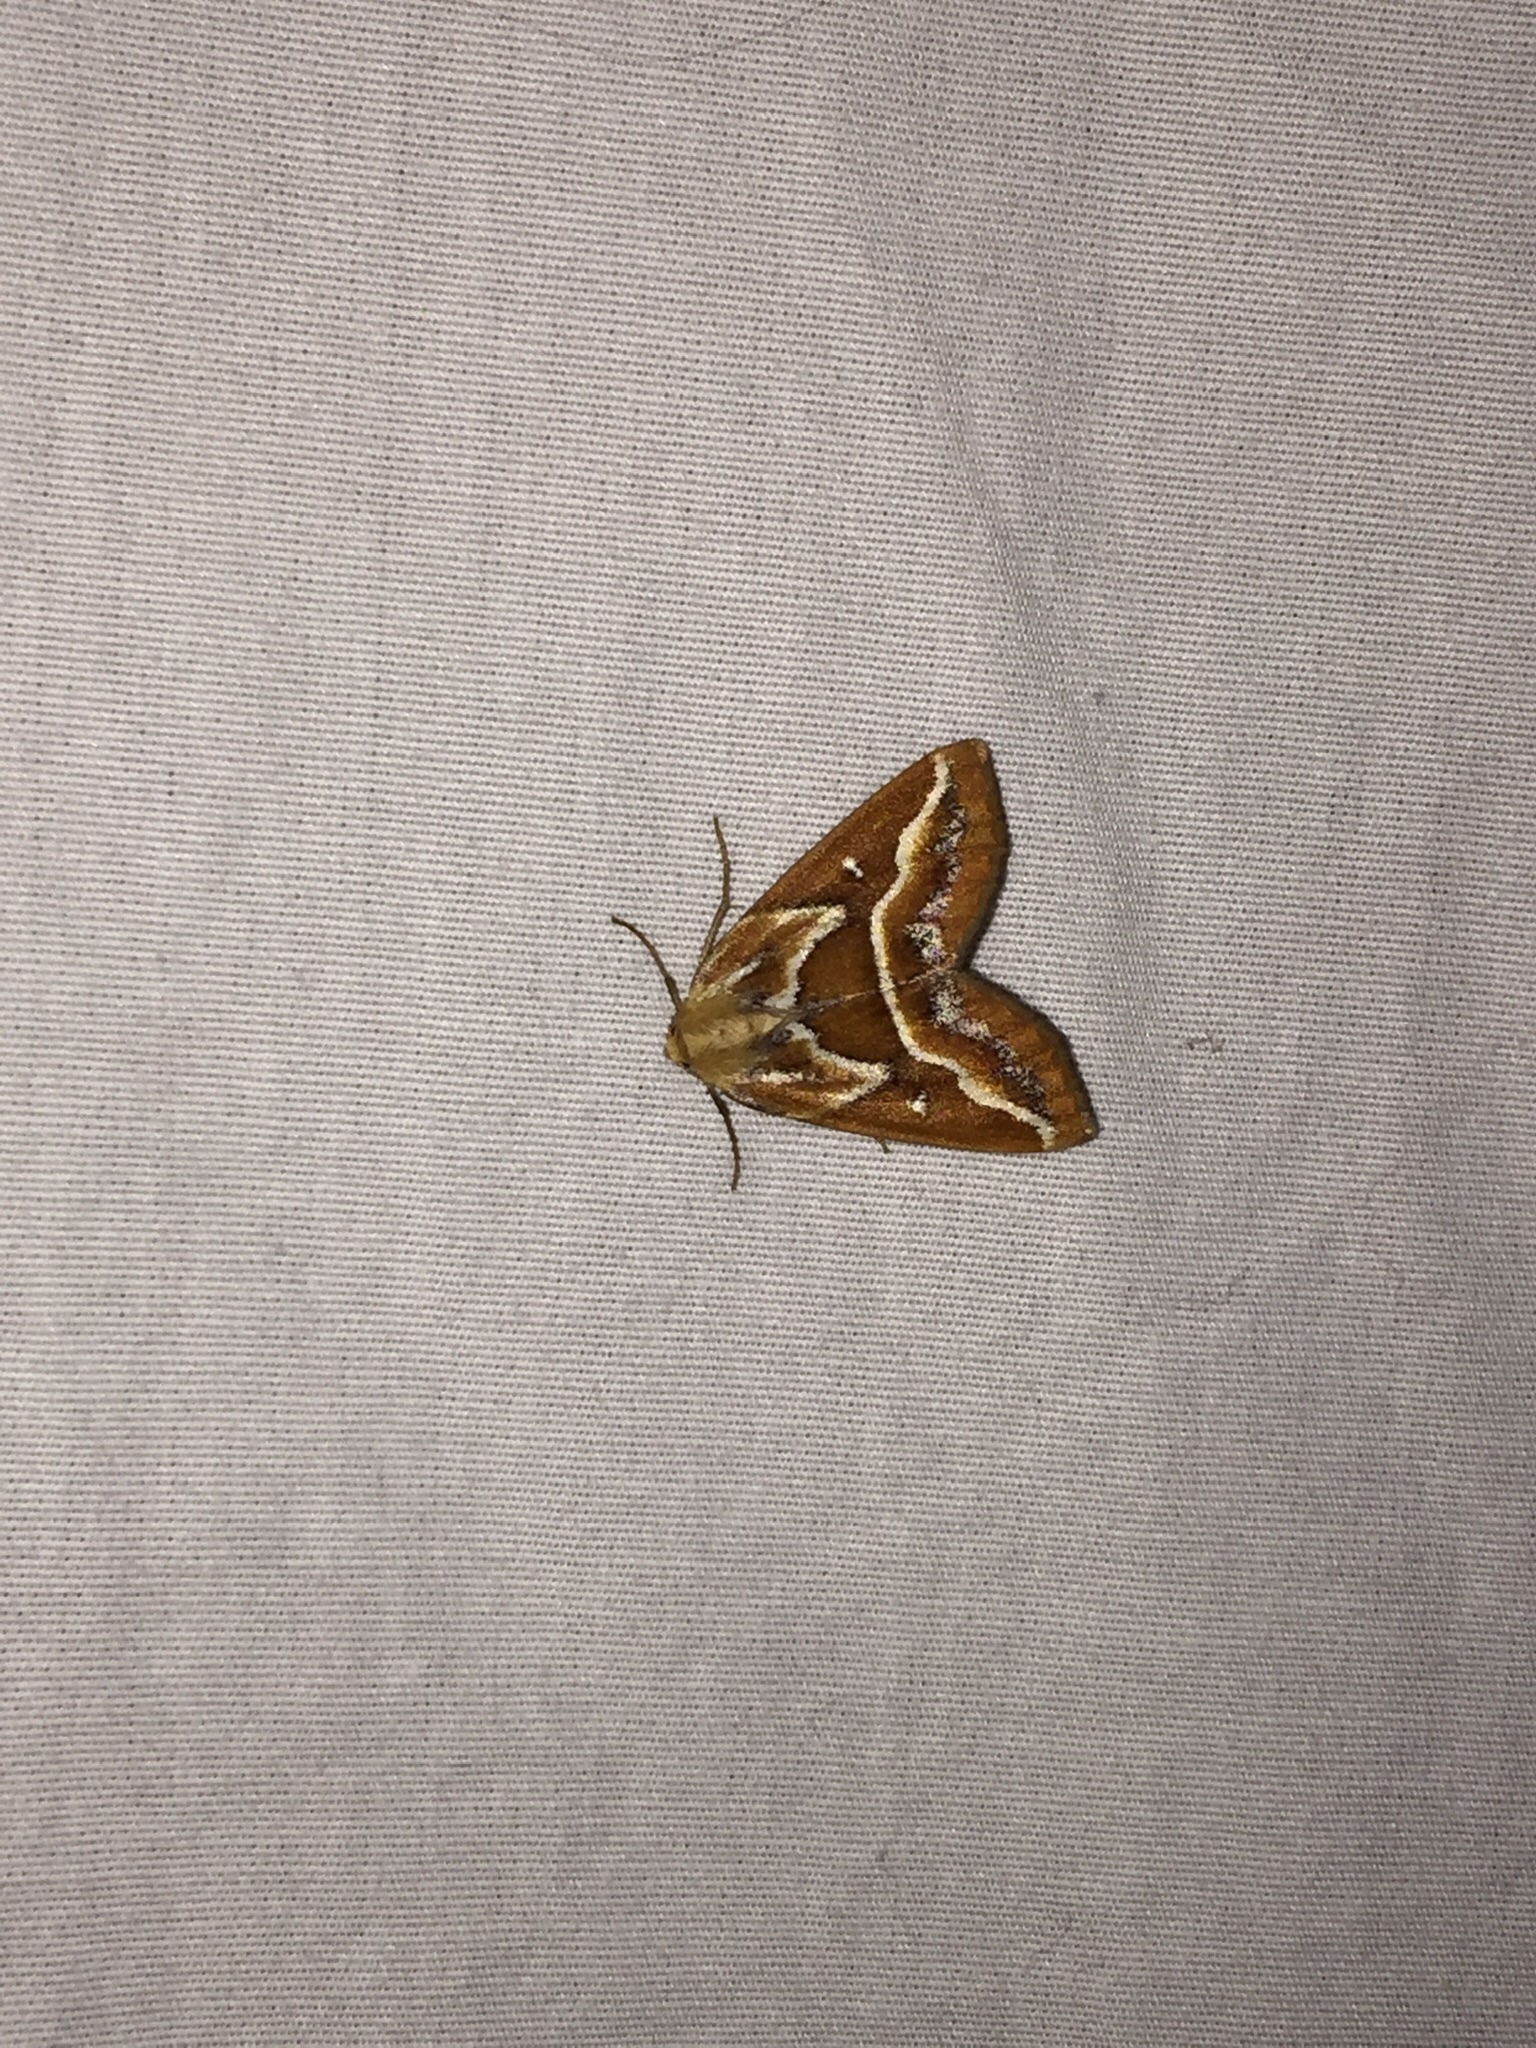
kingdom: Animalia
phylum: Arthropoda
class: Insecta
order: Lepidoptera
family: Geometridae
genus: Caripeta
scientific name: Caripeta angustiorata
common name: Brown pine looper
